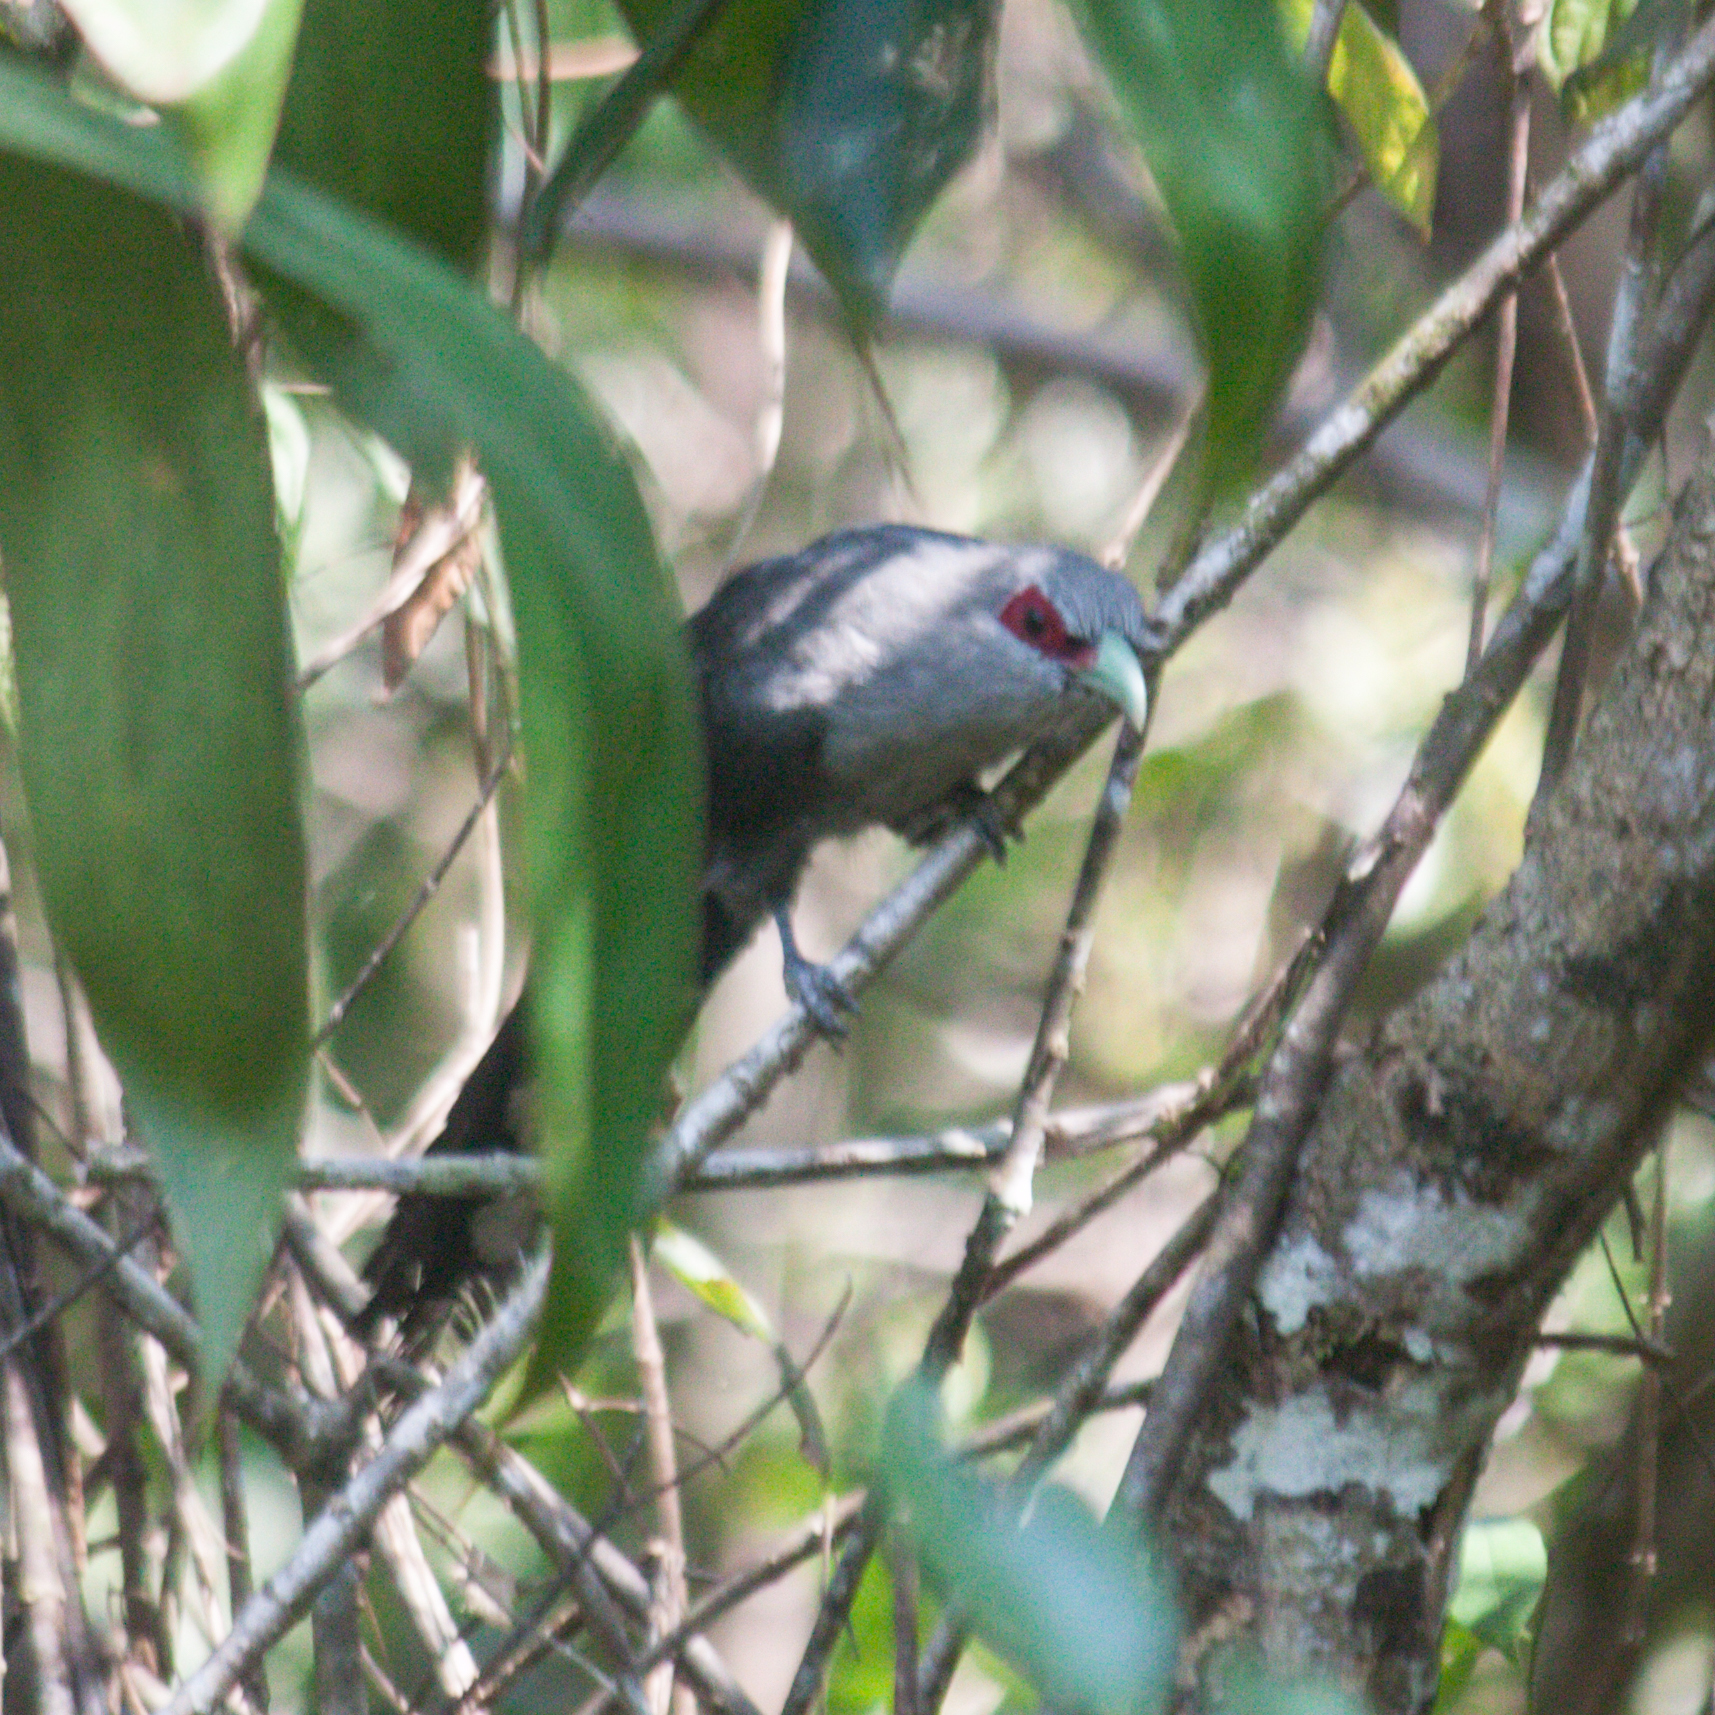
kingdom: Animalia
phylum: Chordata
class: Aves
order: Cuculiformes
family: Cuculidae
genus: Rhopodytes
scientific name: Rhopodytes tristis
